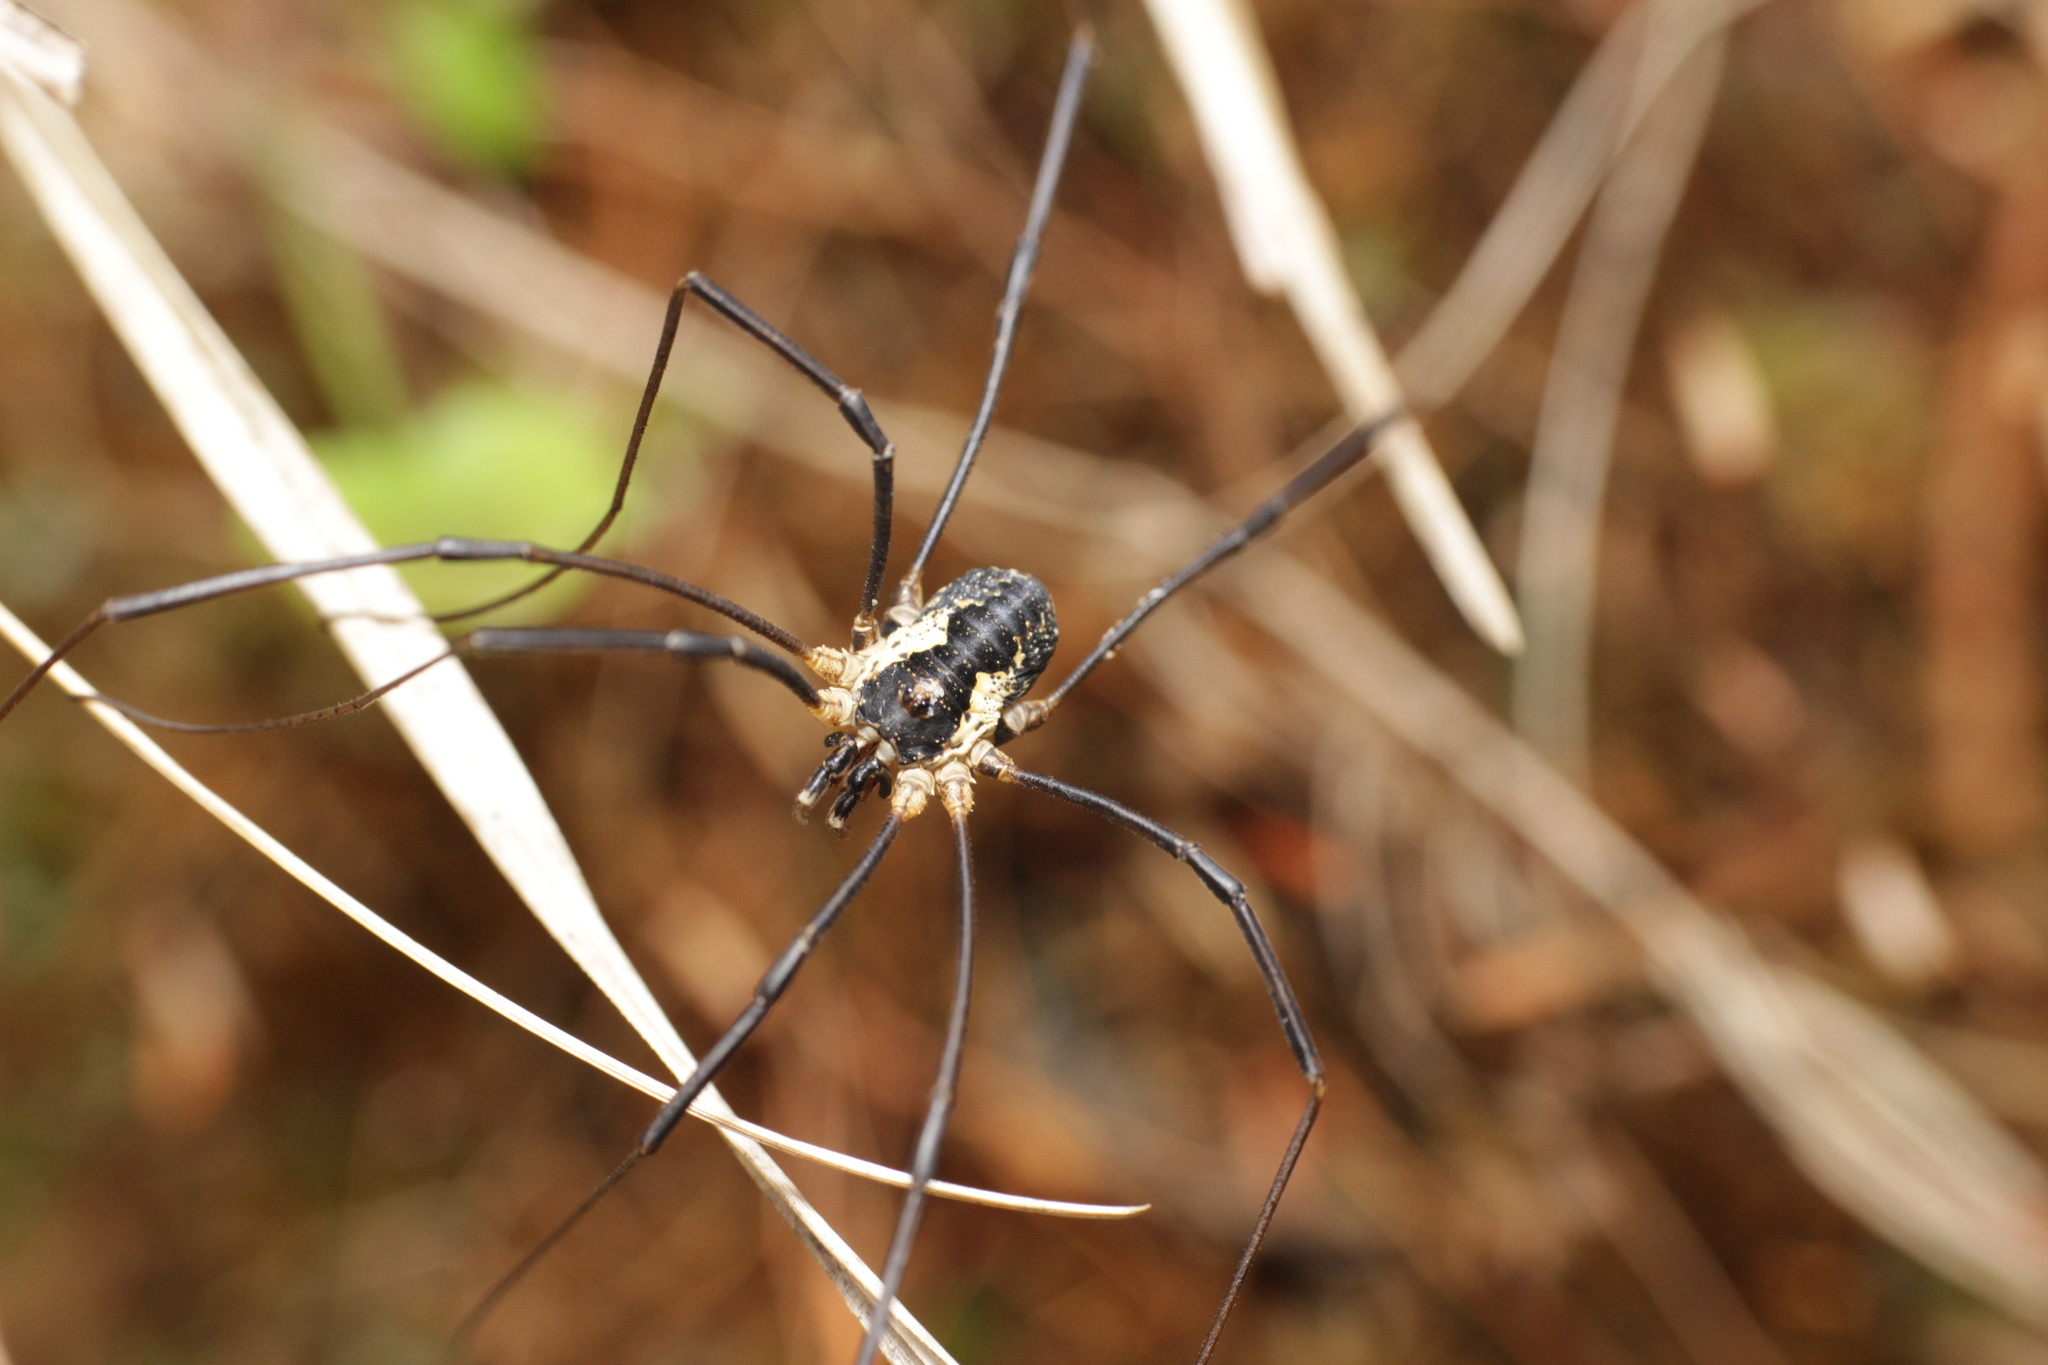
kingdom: Animalia
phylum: Arthropoda
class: Arachnida
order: Opiliones
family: Phalangiidae
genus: Mitopus
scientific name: Mitopus morio
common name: Saddleback harvestman
